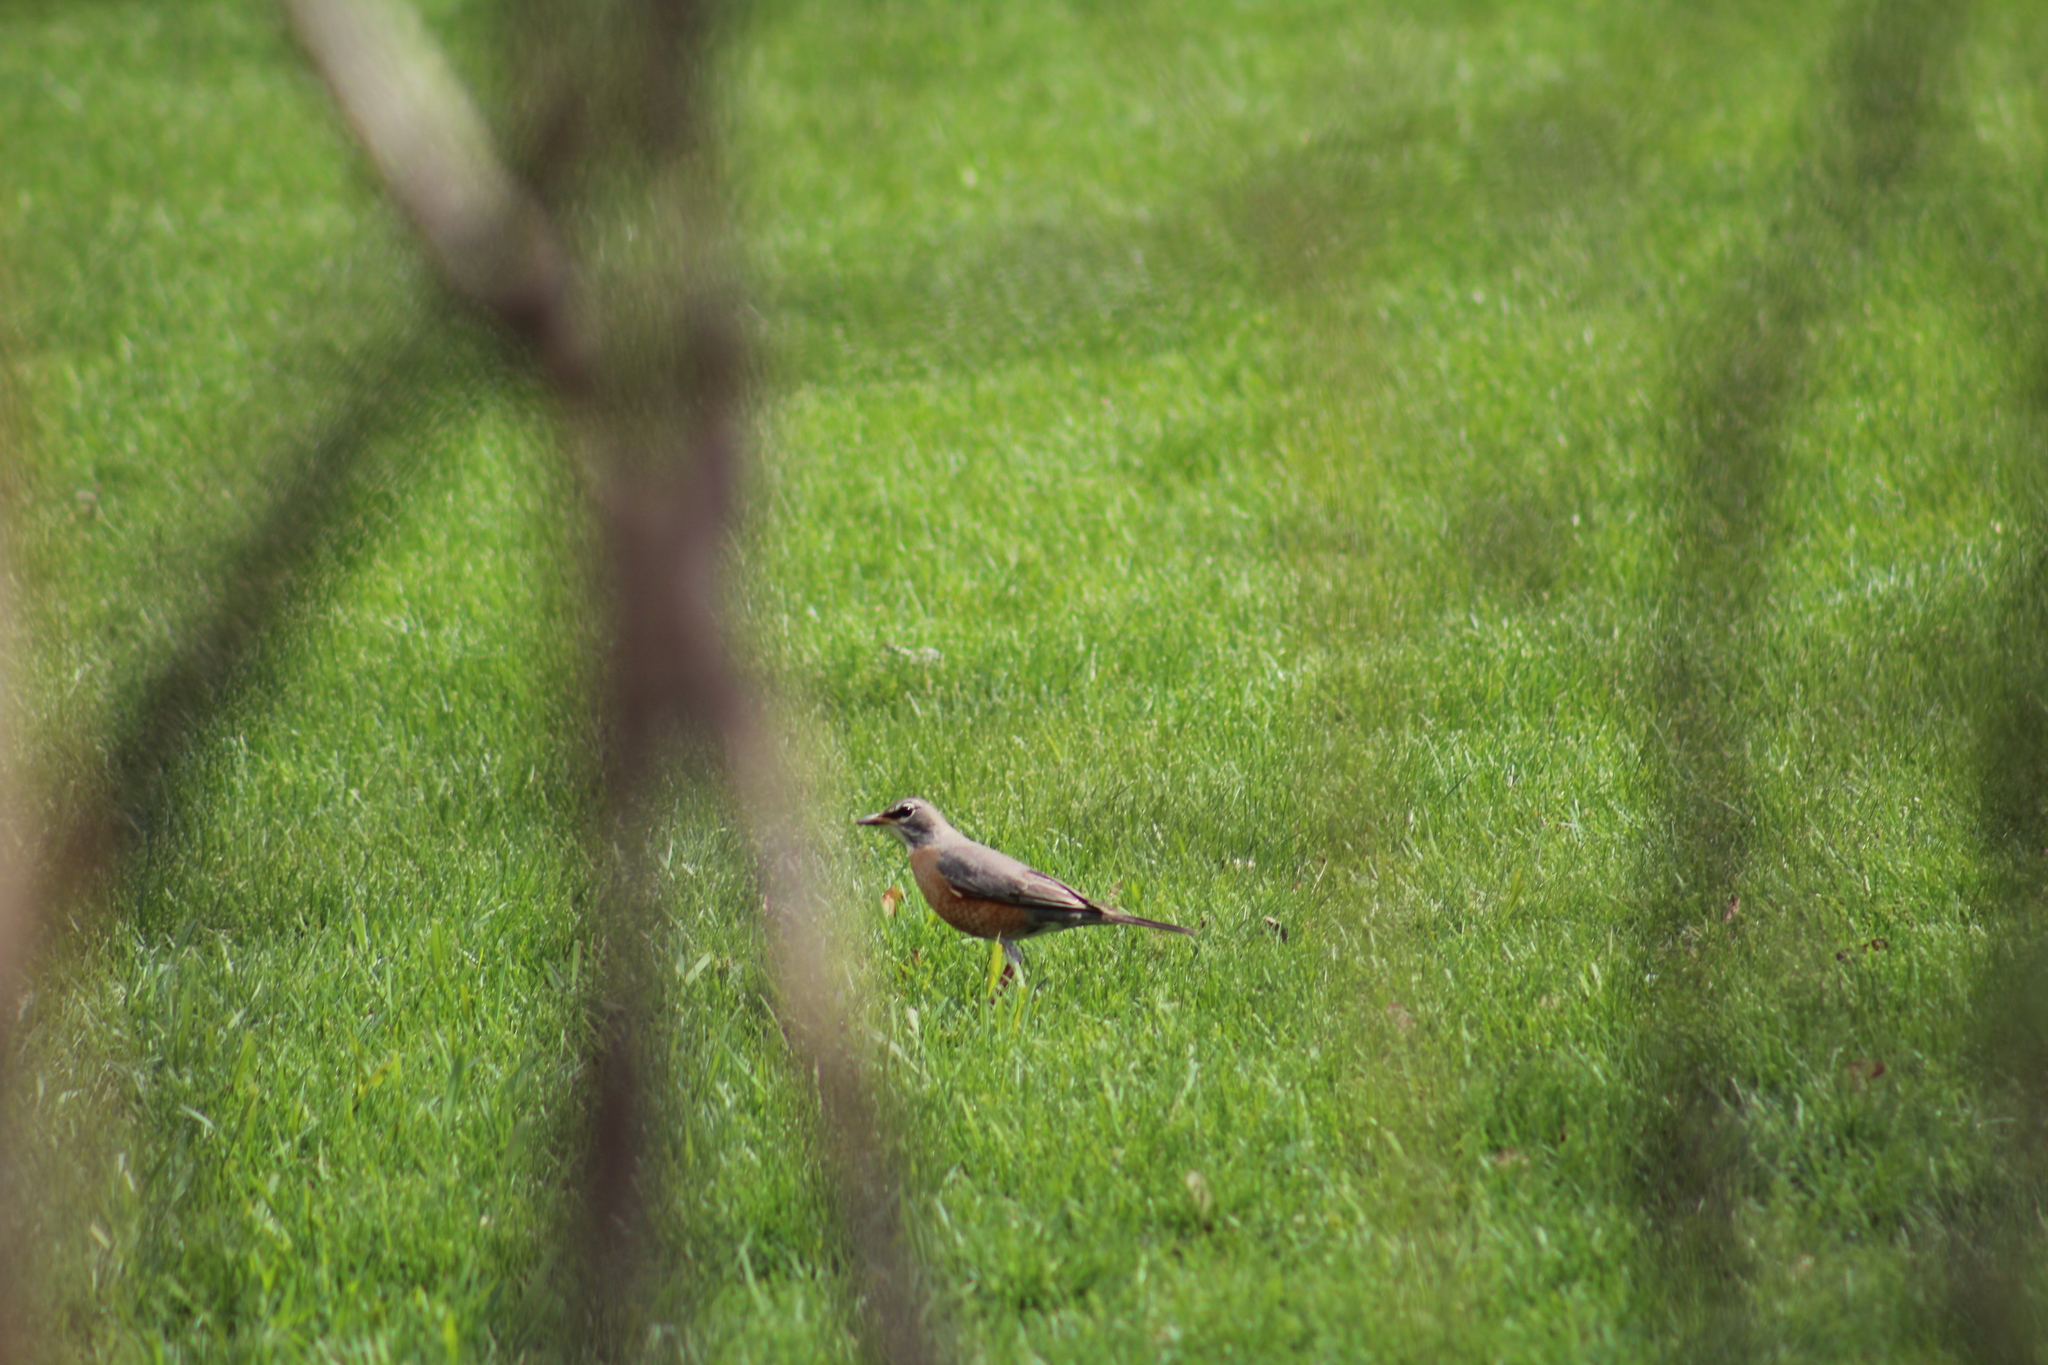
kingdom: Animalia
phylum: Chordata
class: Aves
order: Passeriformes
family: Turdidae
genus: Turdus
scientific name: Turdus migratorius
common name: American robin
